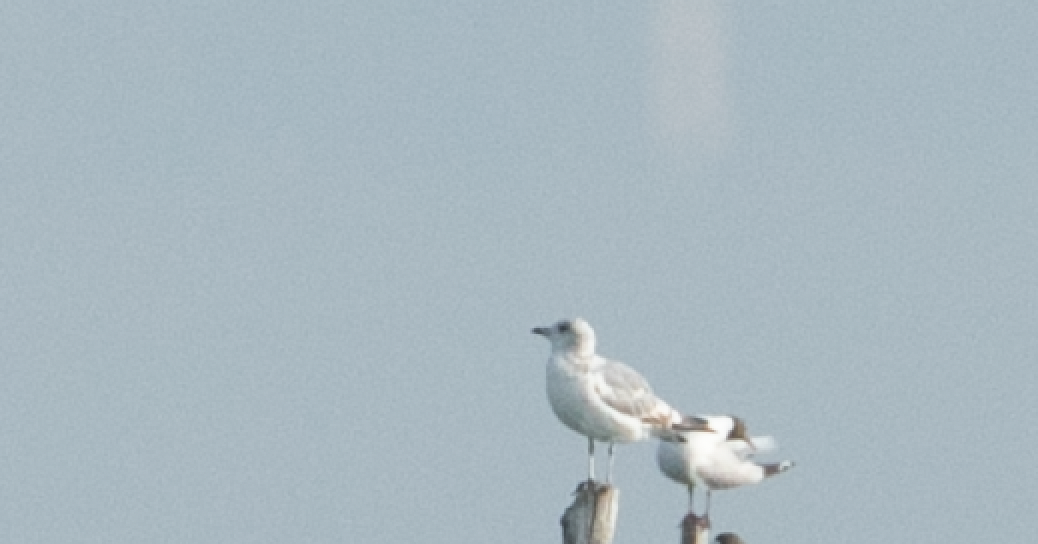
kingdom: Animalia
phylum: Chordata
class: Aves
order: Charadriiformes
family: Laridae
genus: Larus
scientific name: Larus canus
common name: Mew gull
